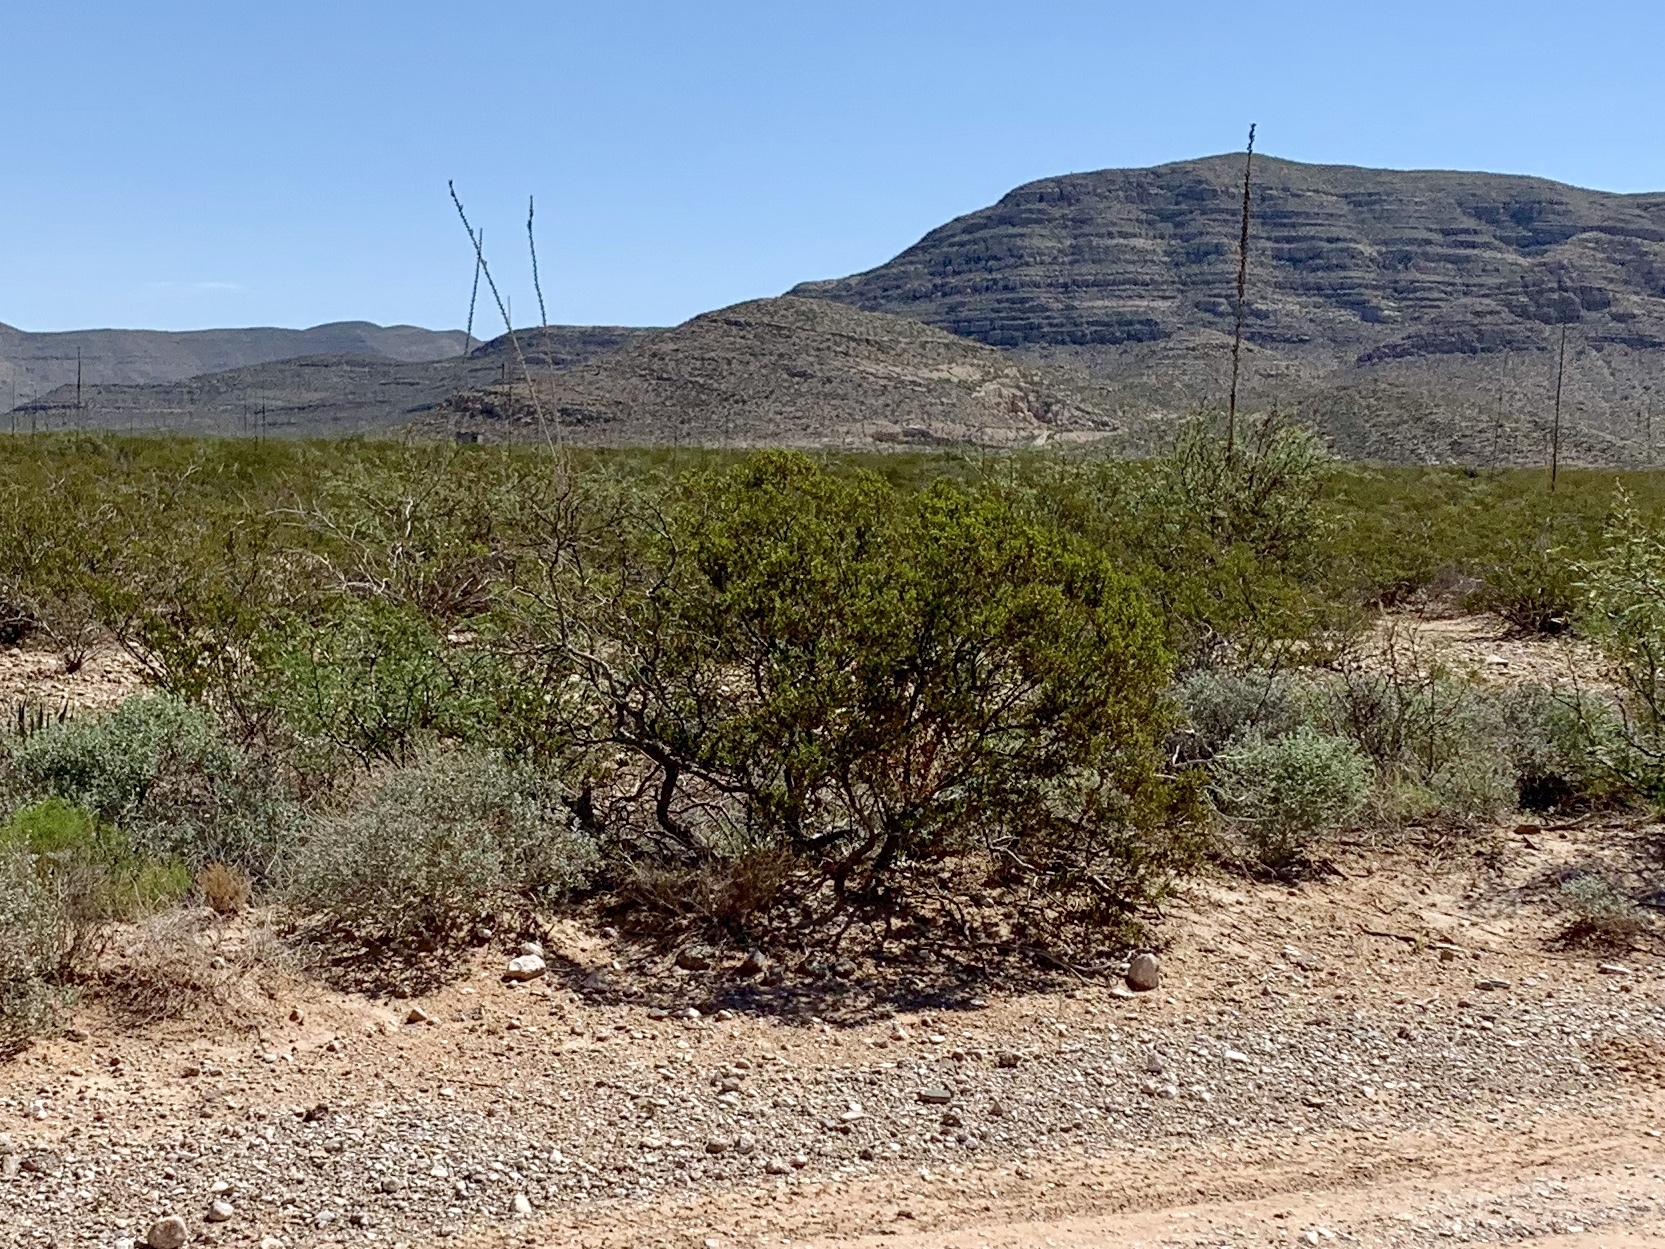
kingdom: Plantae
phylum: Tracheophyta
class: Magnoliopsida
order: Zygophyllales
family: Zygophyllaceae
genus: Larrea
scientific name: Larrea tridentata
